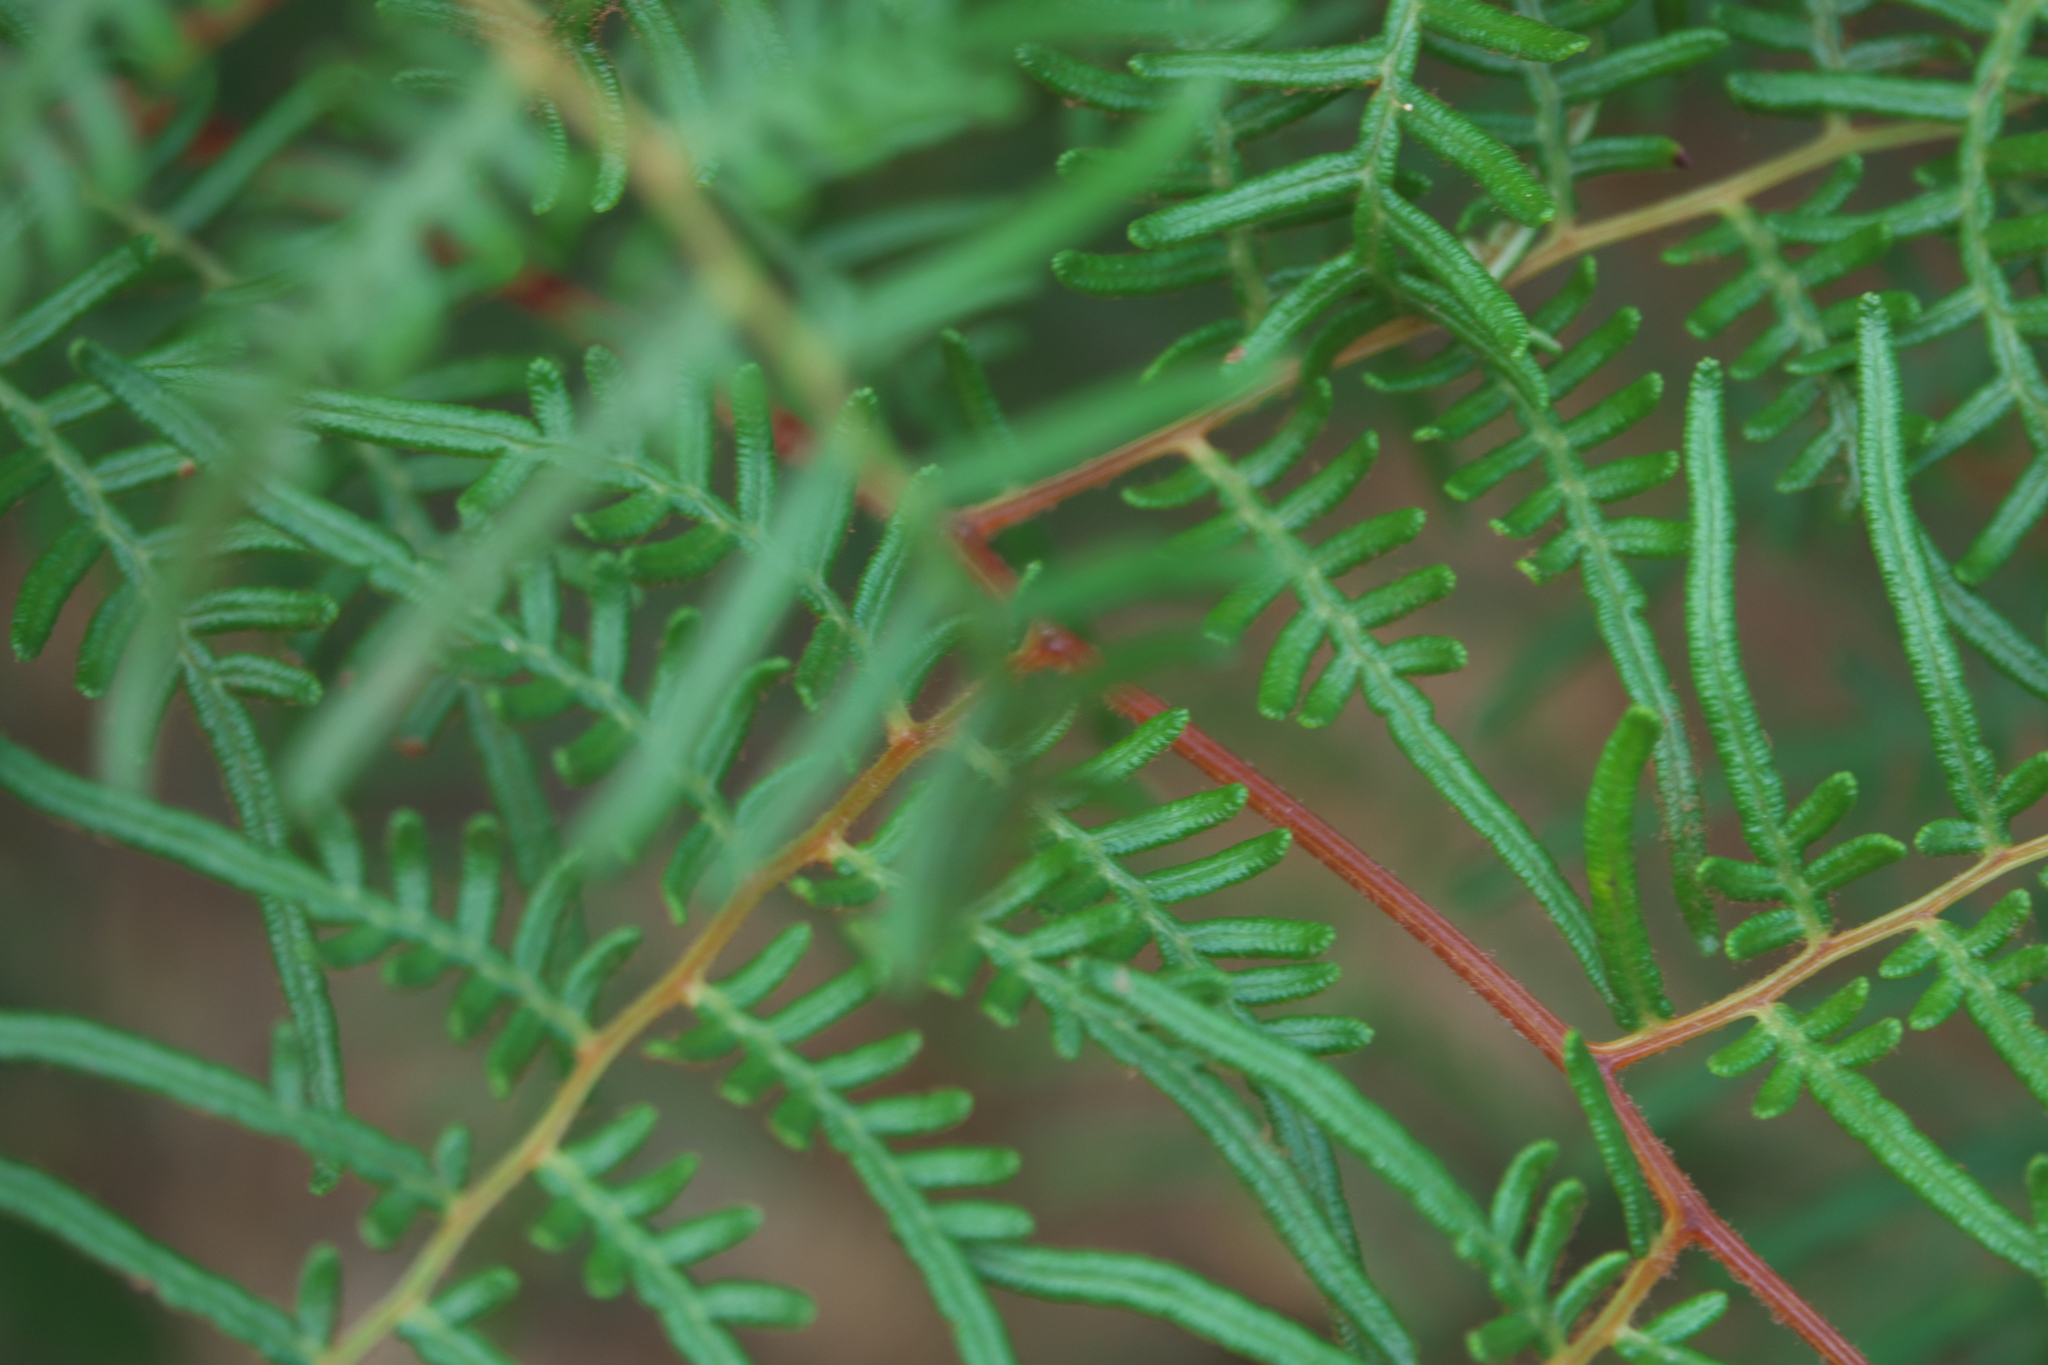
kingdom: Plantae
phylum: Tracheophyta
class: Polypodiopsida
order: Polypodiales
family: Dennstaedtiaceae
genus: Pteridium
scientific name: Pteridium esculentum
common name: Bracken fern
